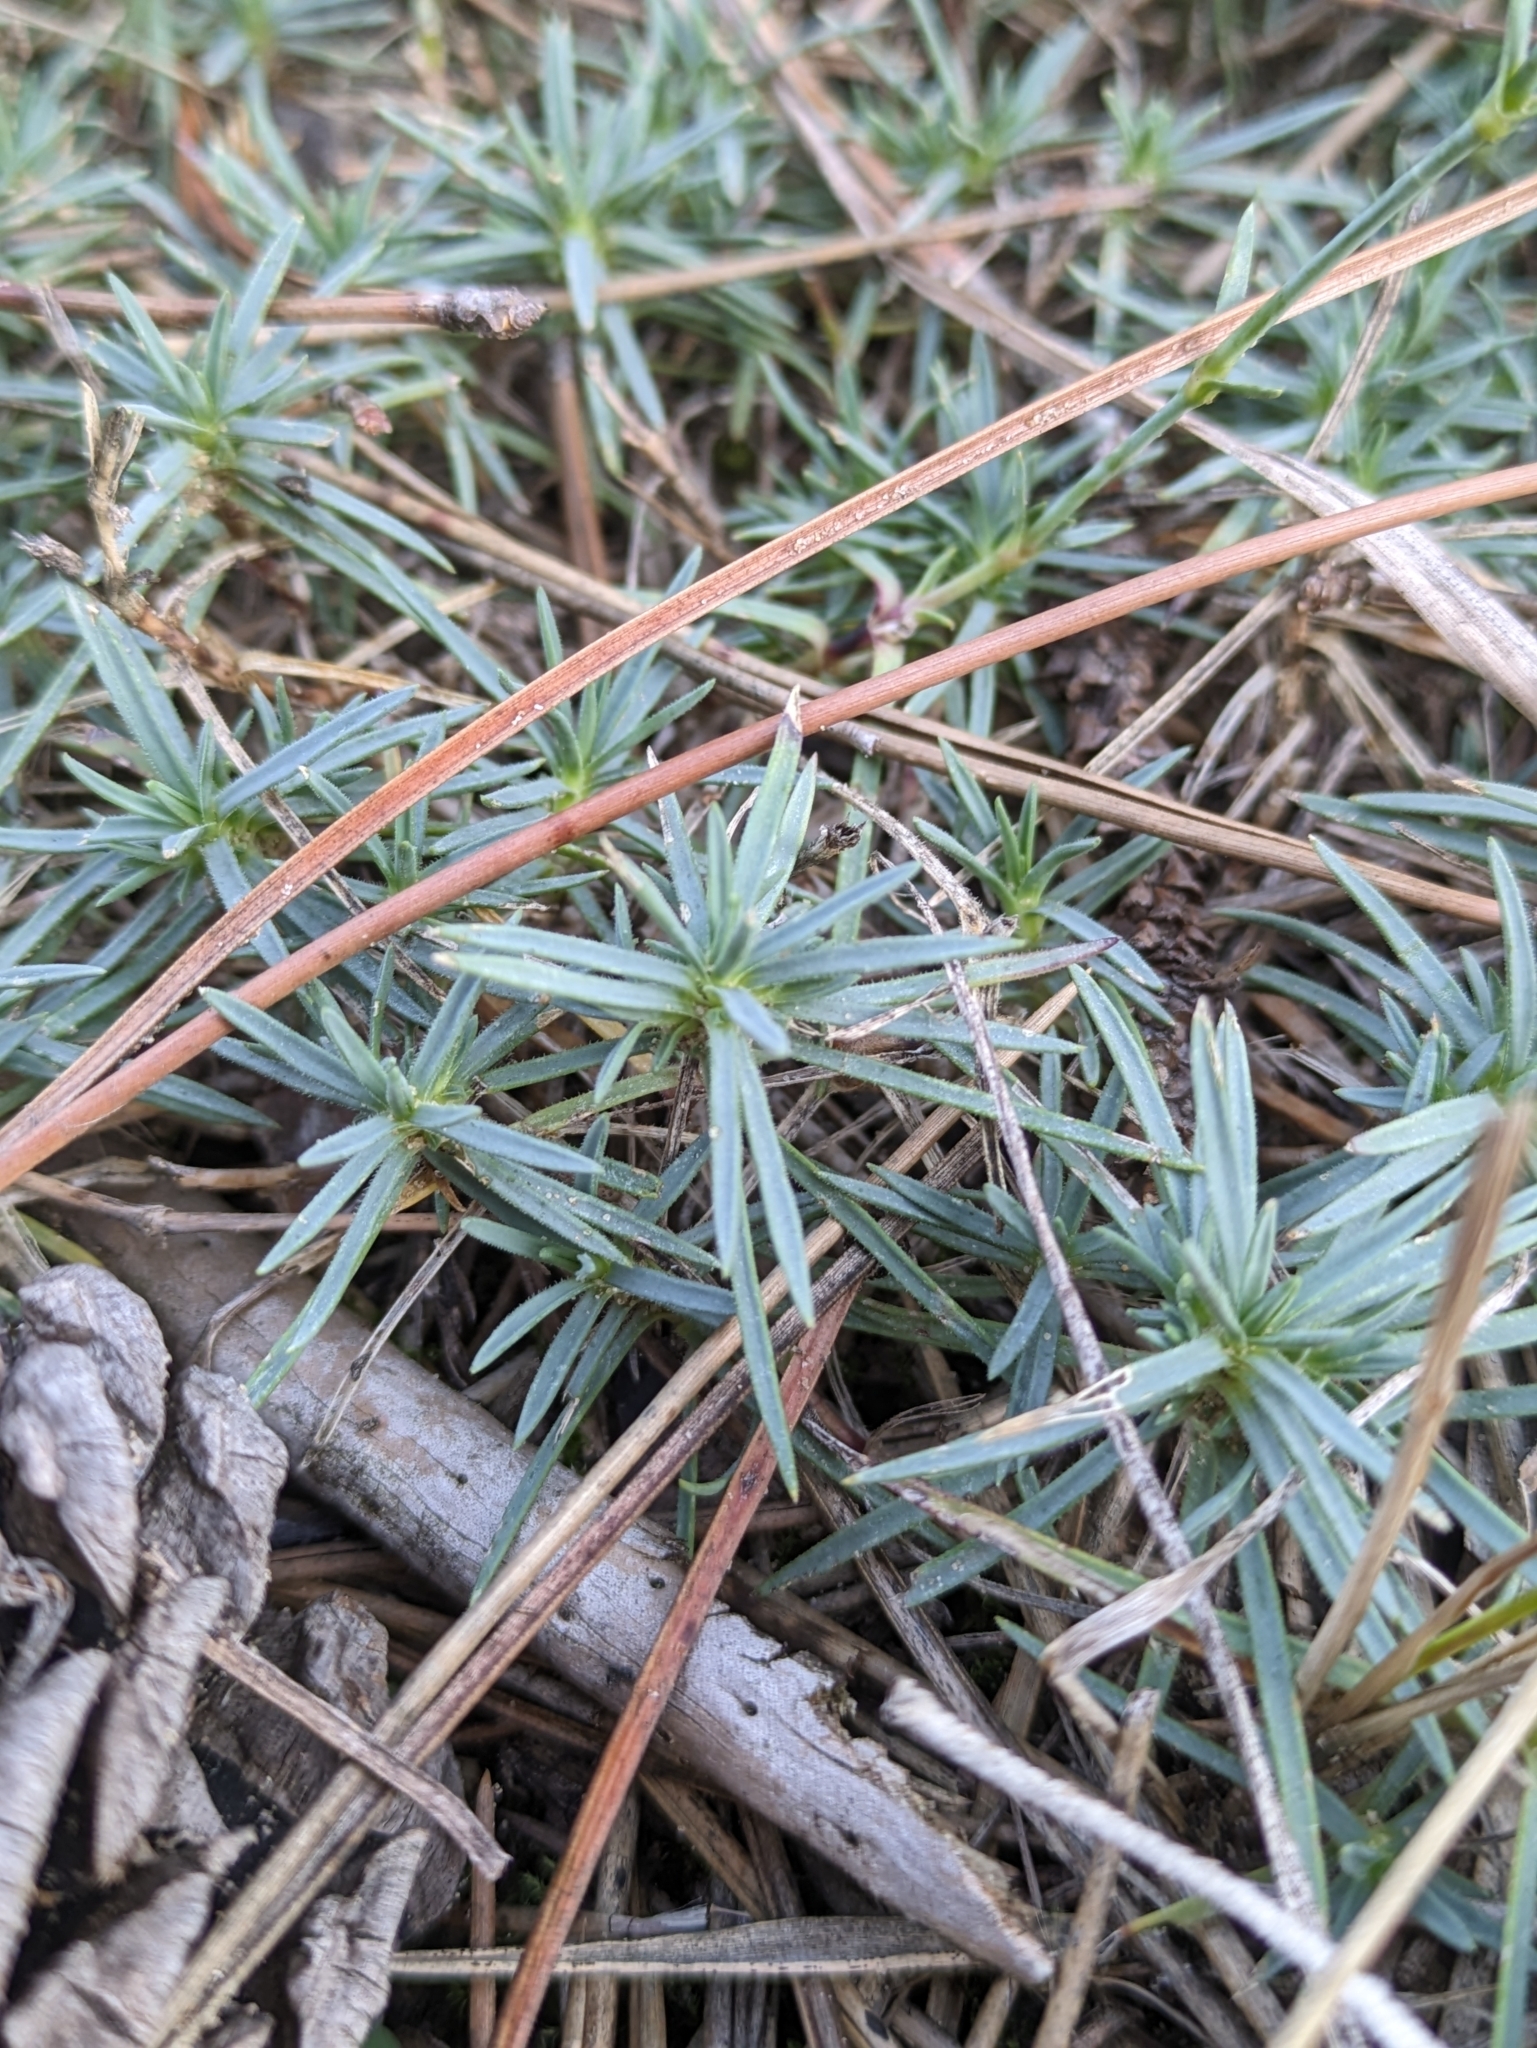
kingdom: Plantae
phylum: Tracheophyta
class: Magnoliopsida
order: Caryophyllales
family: Caryophyllaceae
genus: Dianthus
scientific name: Dianthus serotinus
